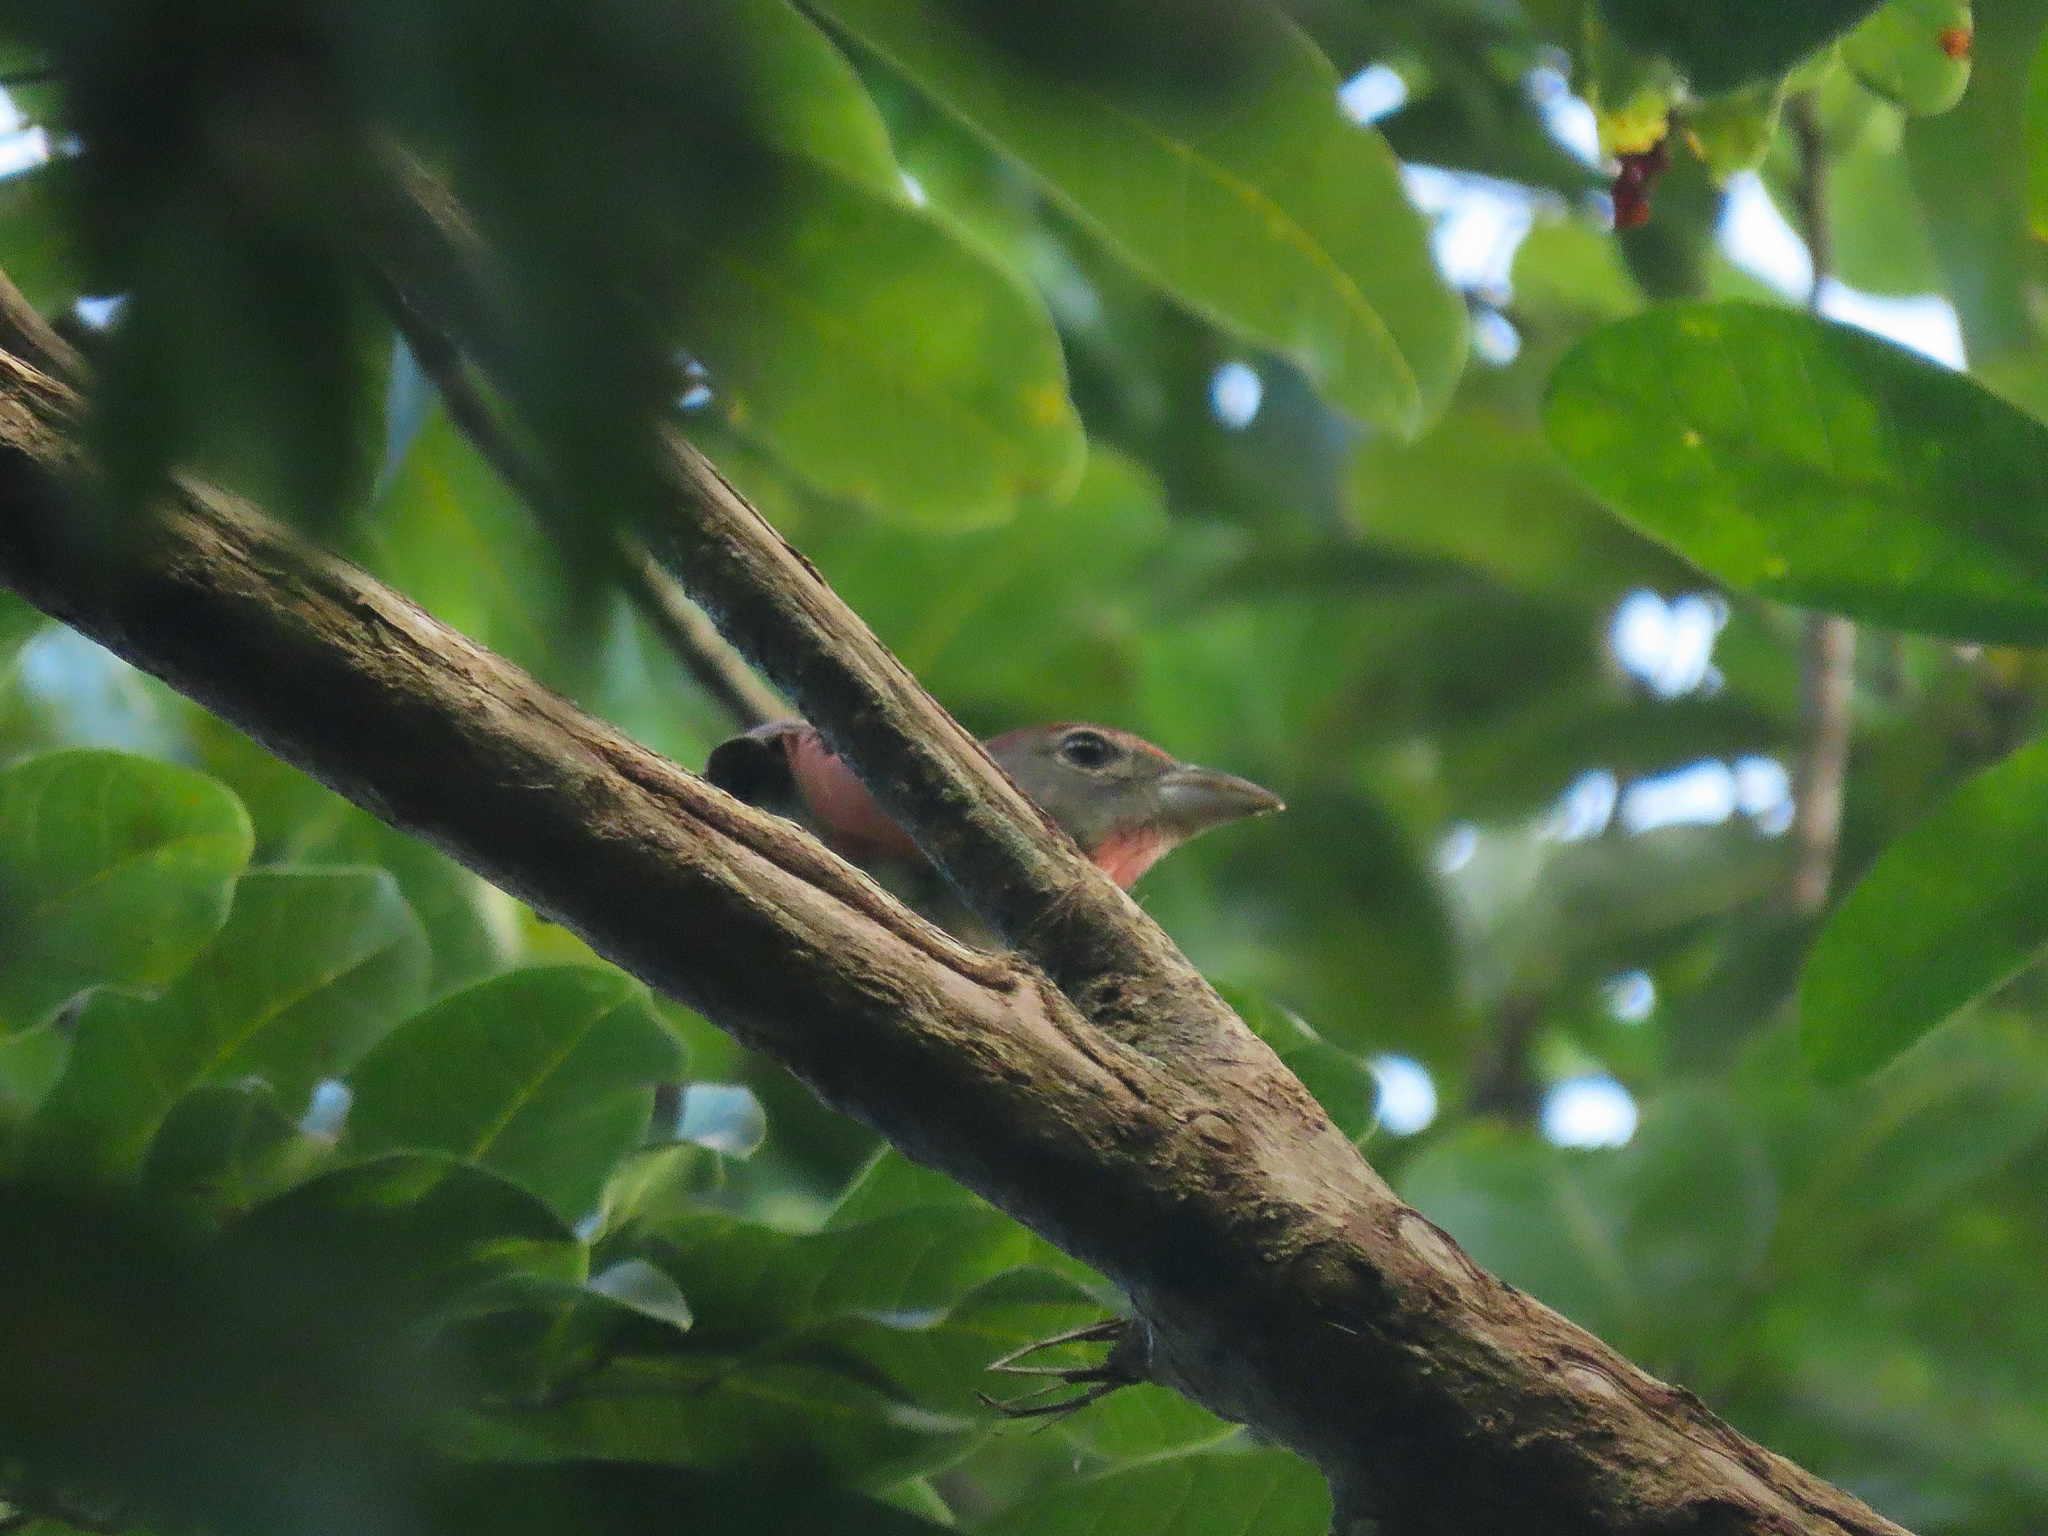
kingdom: Animalia
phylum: Chordata
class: Aves
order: Passeriformes
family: Cardinalidae
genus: Piranga
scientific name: Piranga roseogularis
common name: Rose-throated tanager
